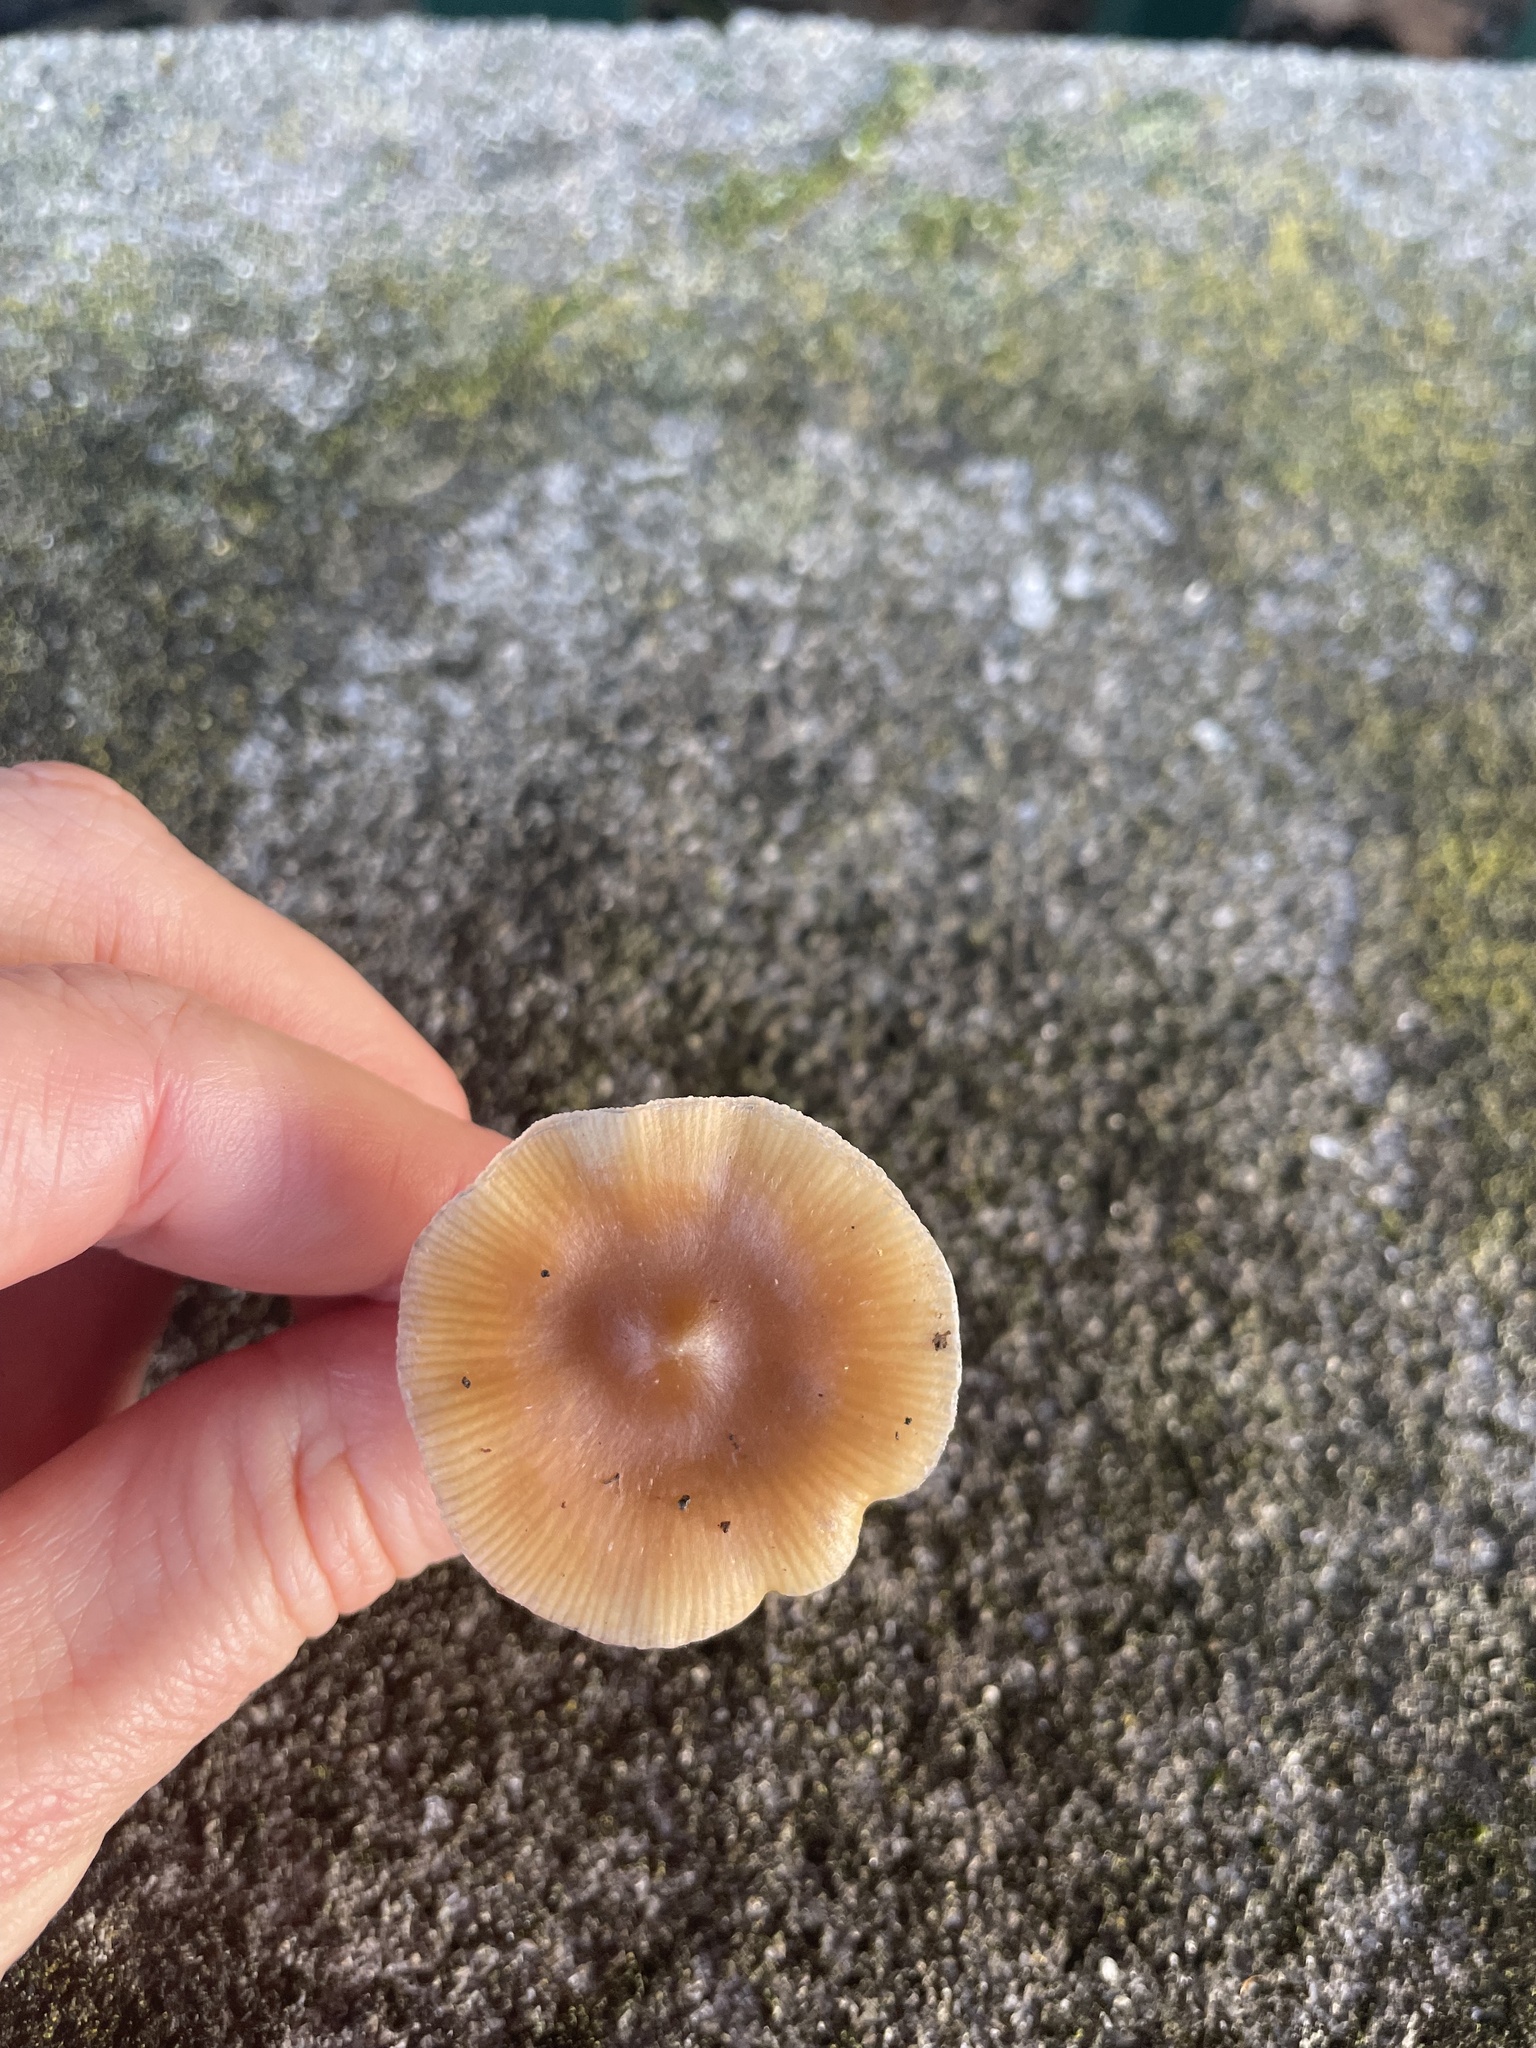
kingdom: Fungi
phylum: Basidiomycota
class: Agaricomycetes
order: Agaricales
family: Hymenogastraceae
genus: Psilocybe
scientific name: Psilocybe subaeruginosa
